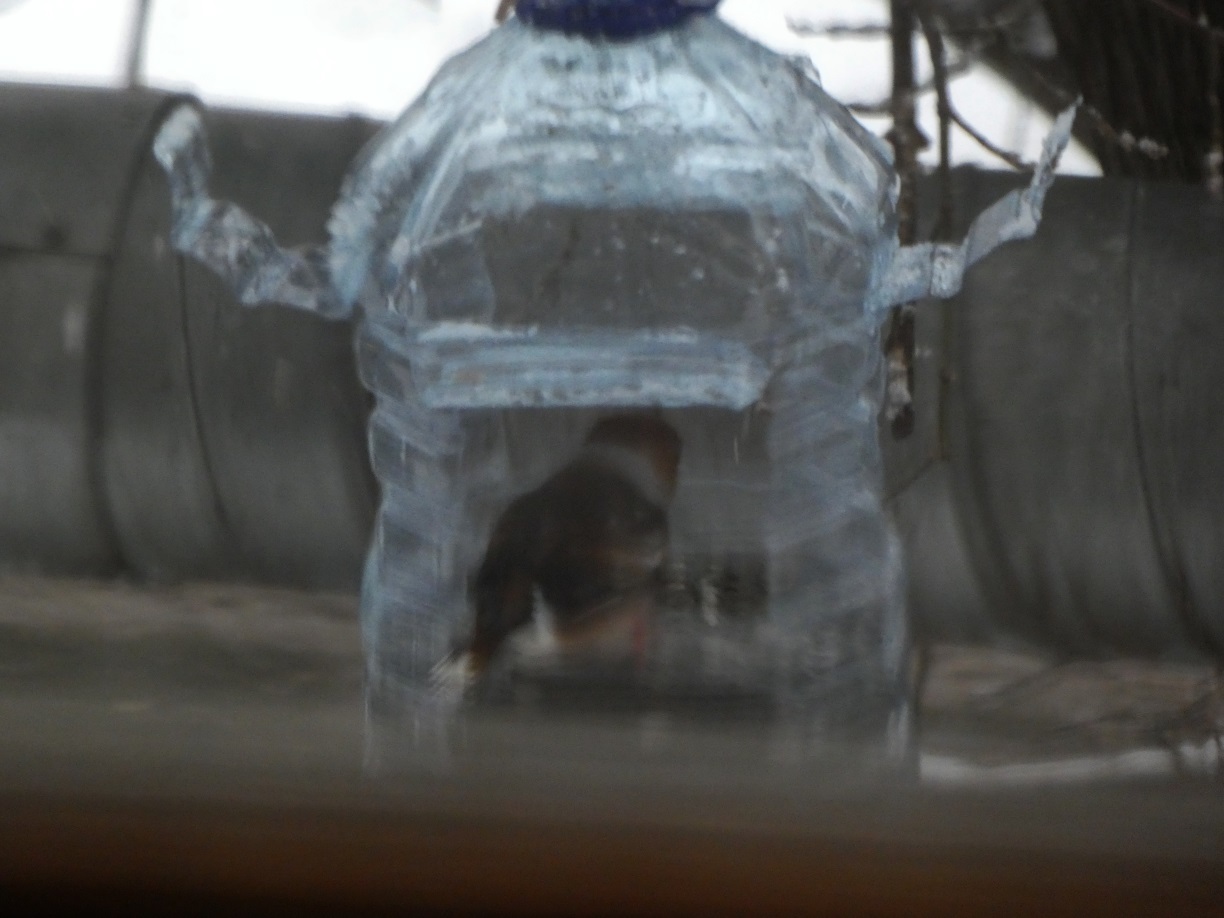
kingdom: Animalia
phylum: Chordata
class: Aves
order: Passeriformes
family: Fringillidae
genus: Coccothraustes
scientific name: Coccothraustes coccothraustes
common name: Hawfinch
